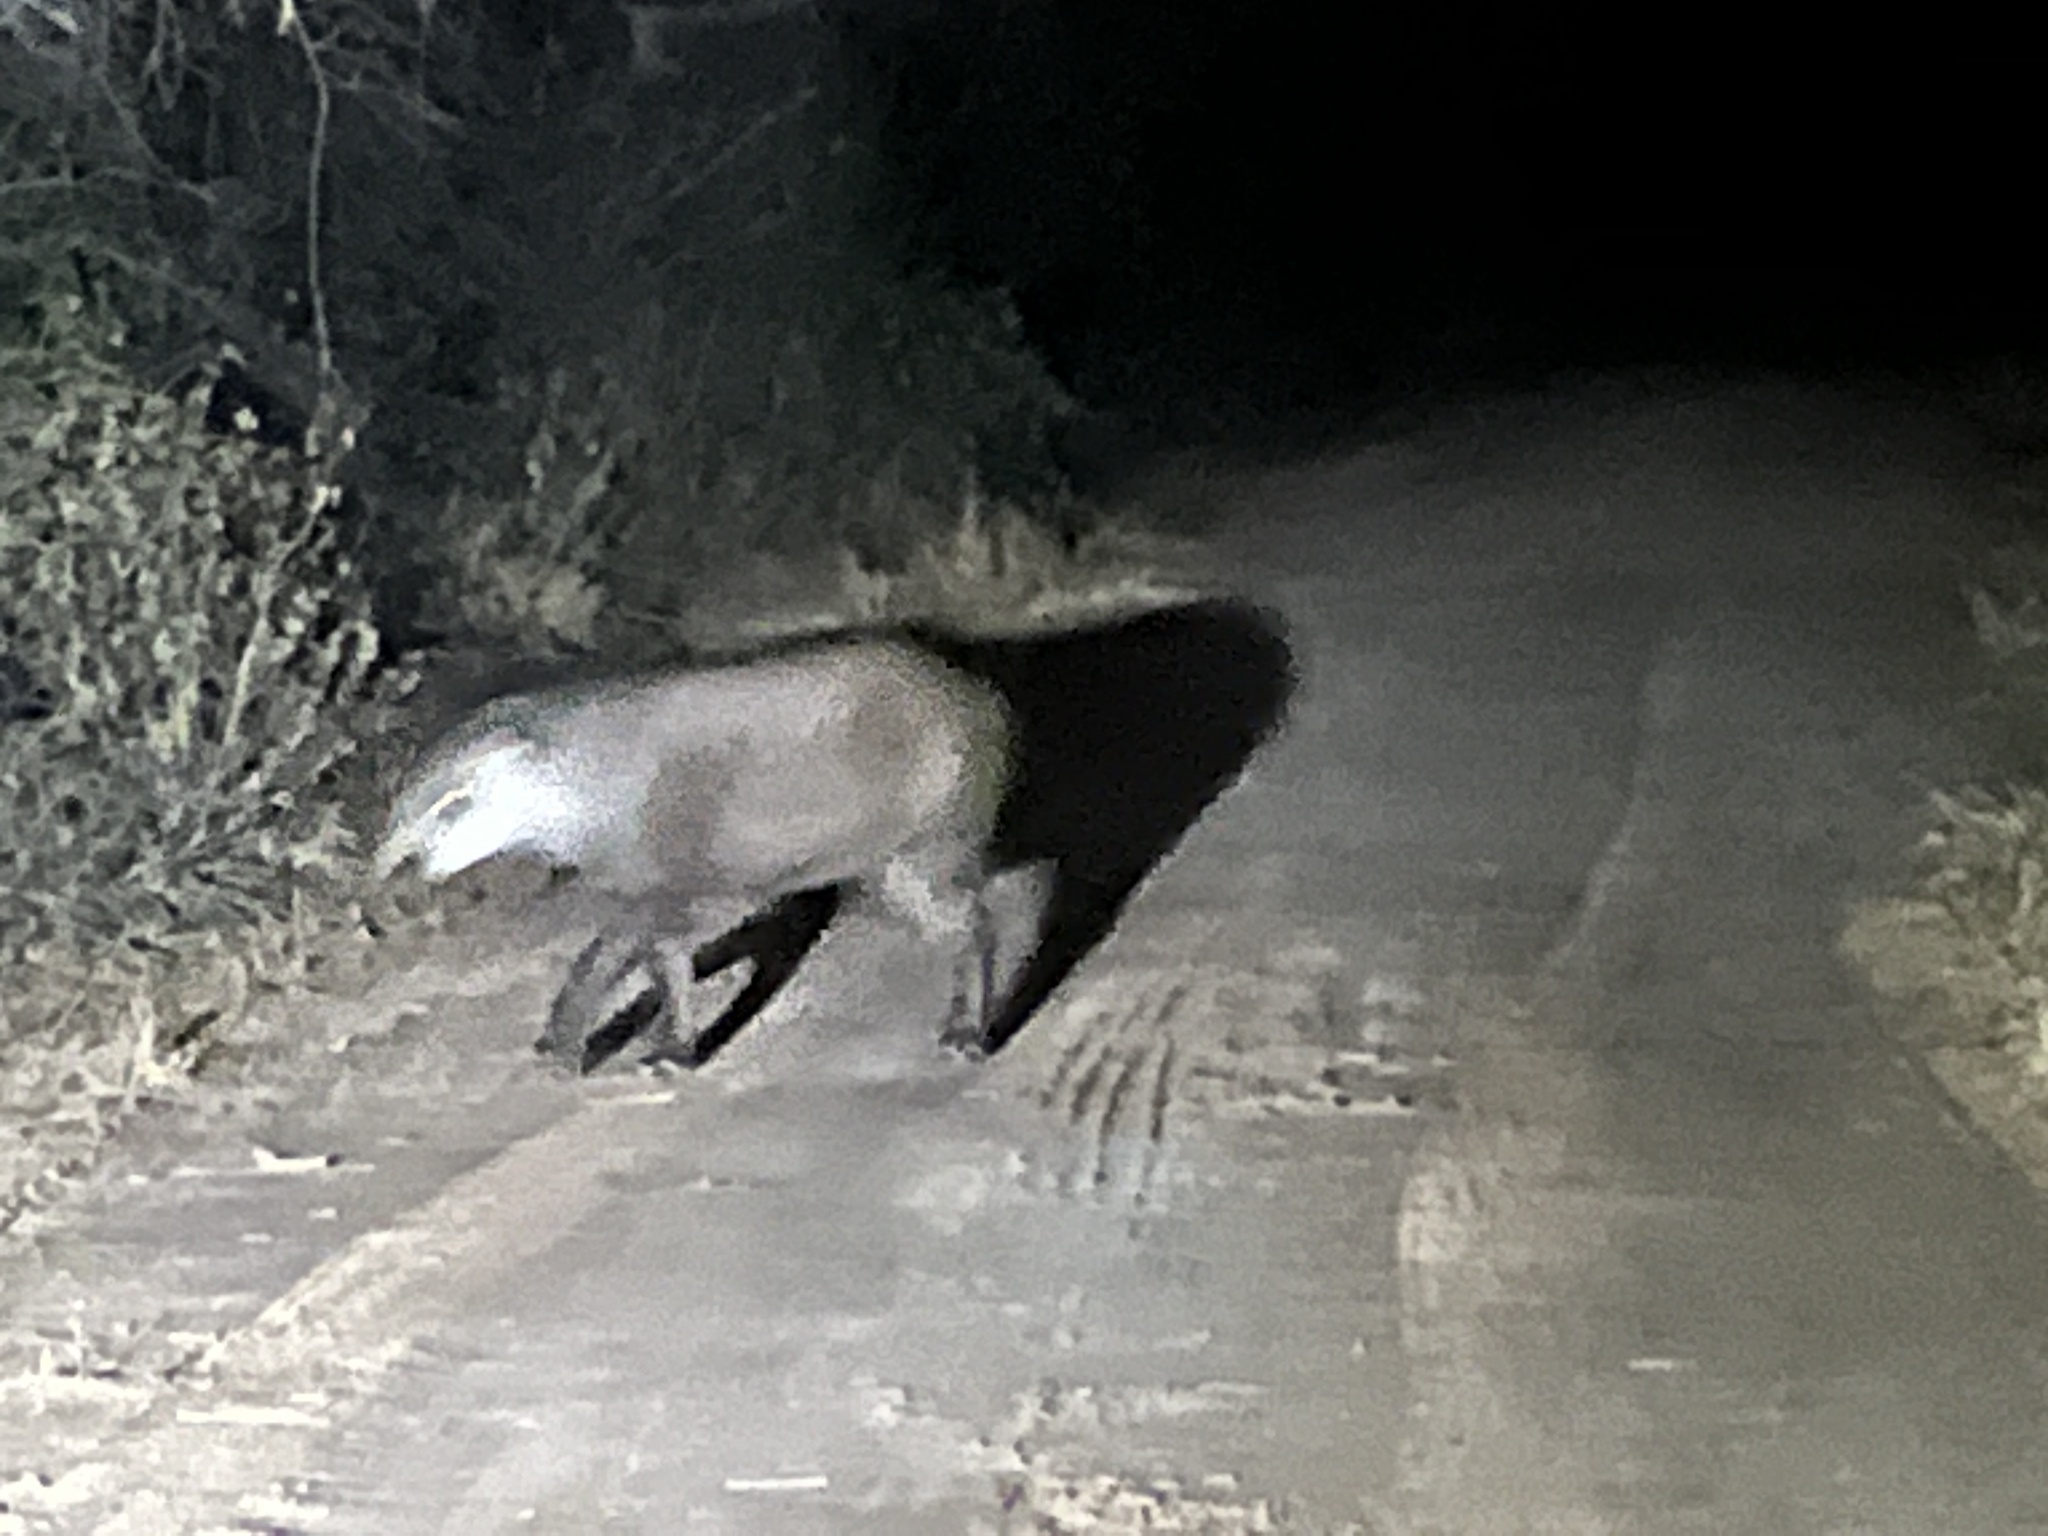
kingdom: Animalia
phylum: Chordata
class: Mammalia
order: Perissodactyla
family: Tapiridae
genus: Tapirus
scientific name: Tapirus terrestris
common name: Brazilian tapir
